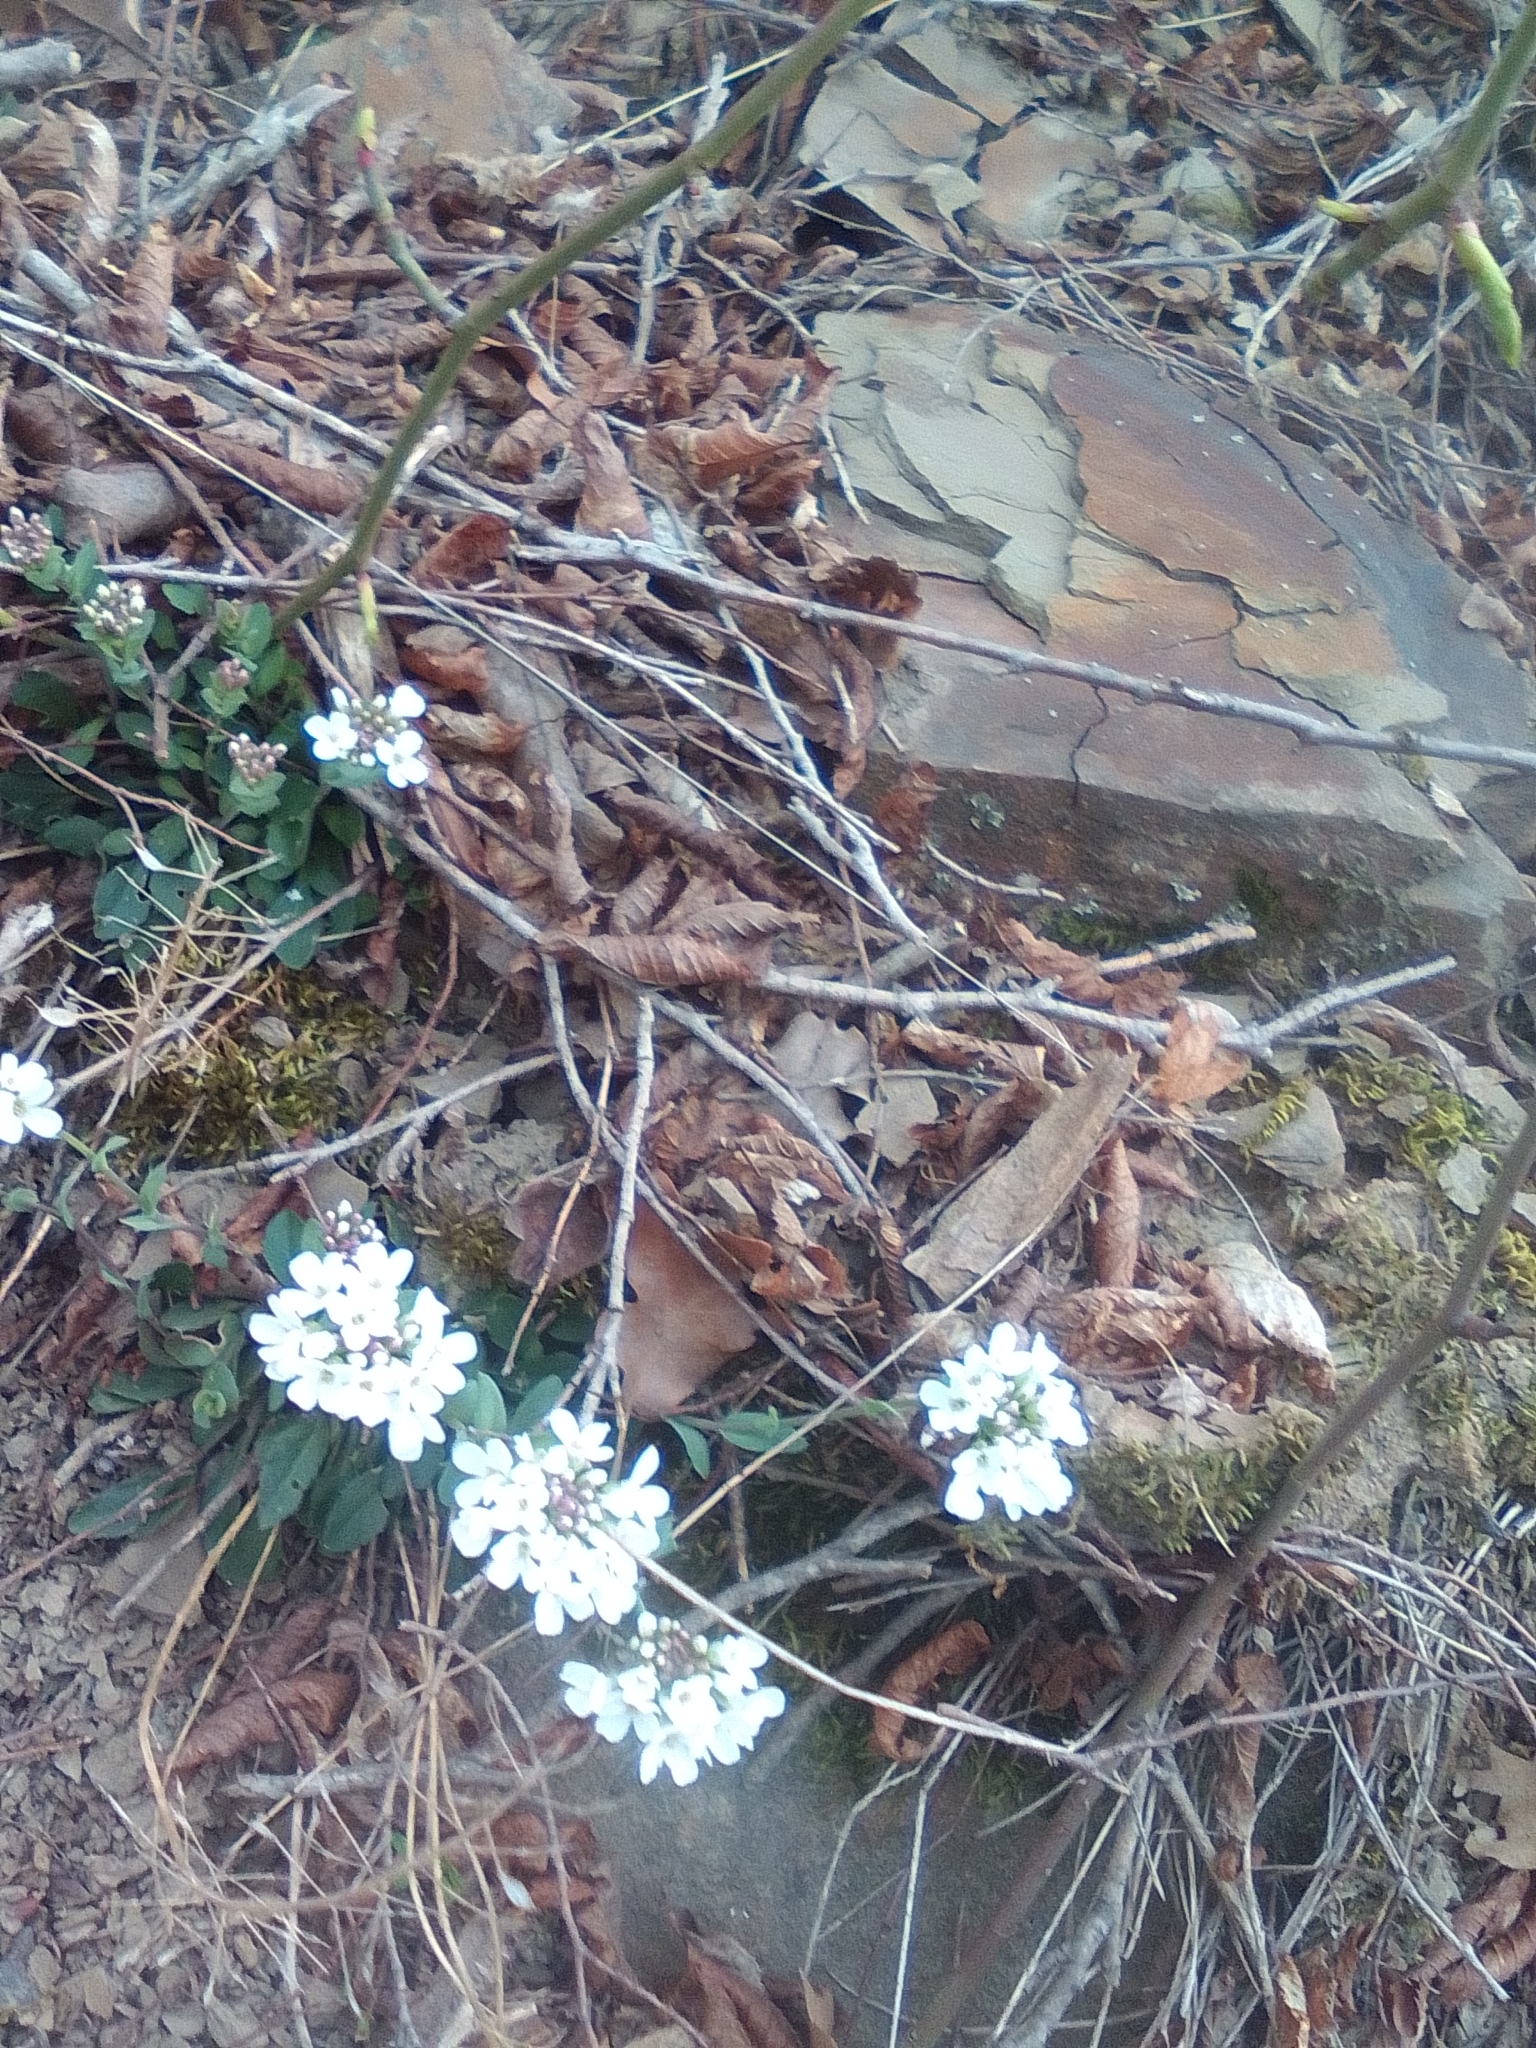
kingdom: Plantae
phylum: Tracheophyta
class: Magnoliopsida
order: Brassicales
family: Brassicaceae
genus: Noccaea
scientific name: Noccaea macrantha
